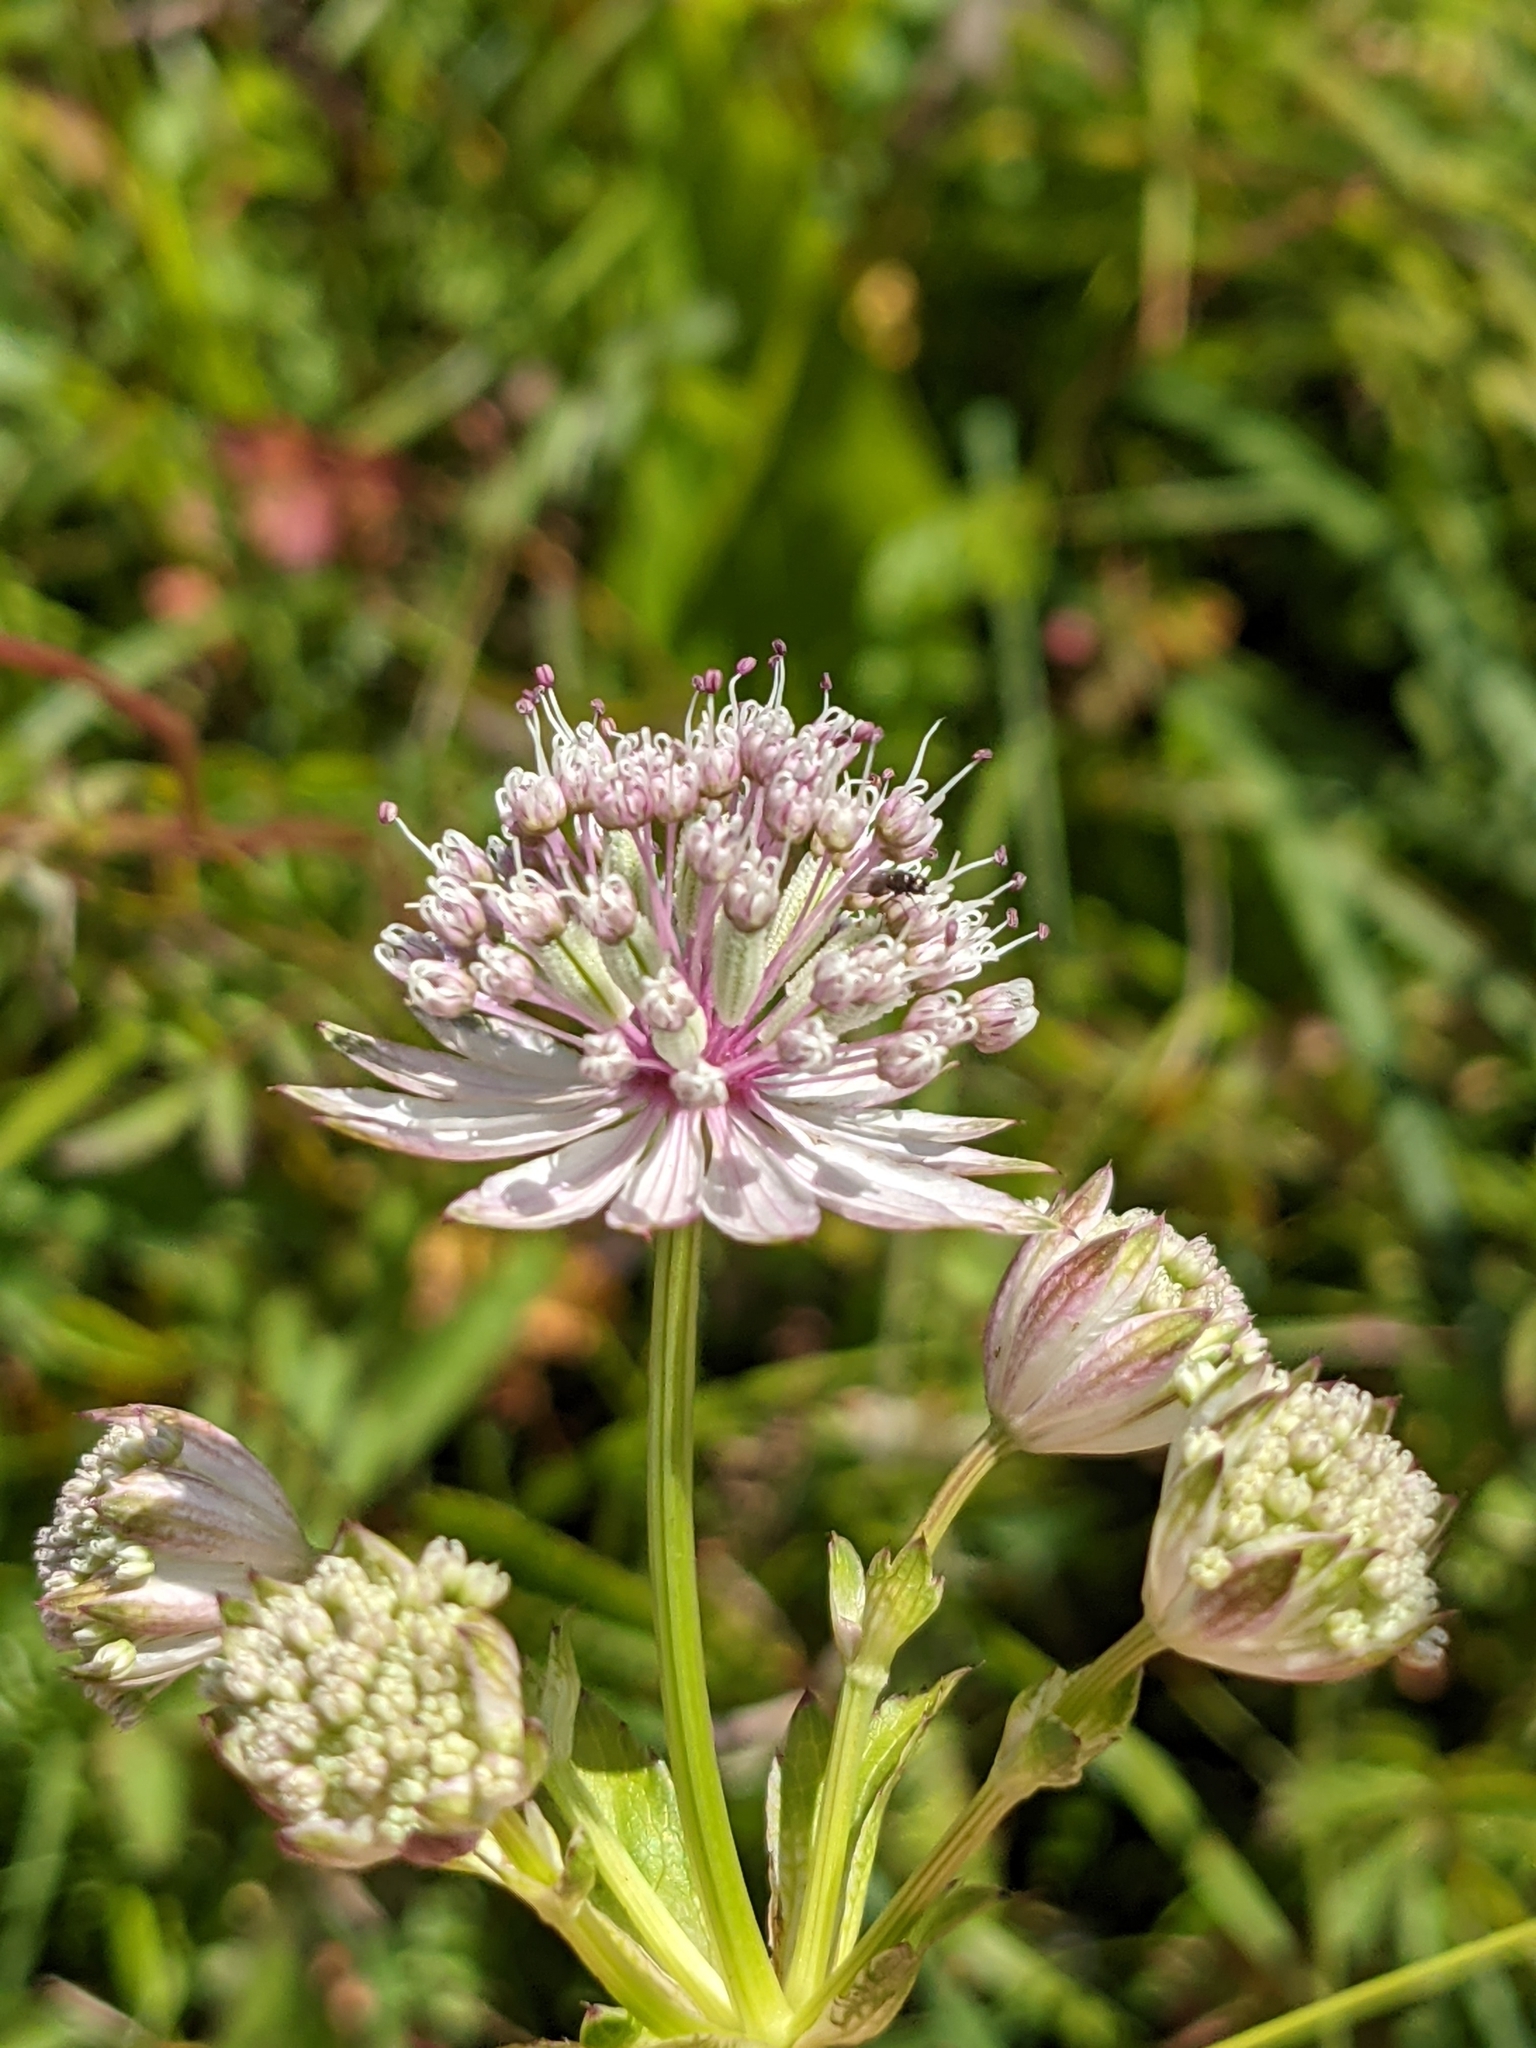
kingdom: Plantae
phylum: Tracheophyta
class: Magnoliopsida
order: Apiales
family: Apiaceae
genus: Astrantia
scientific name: Astrantia major
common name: Greater masterwort
